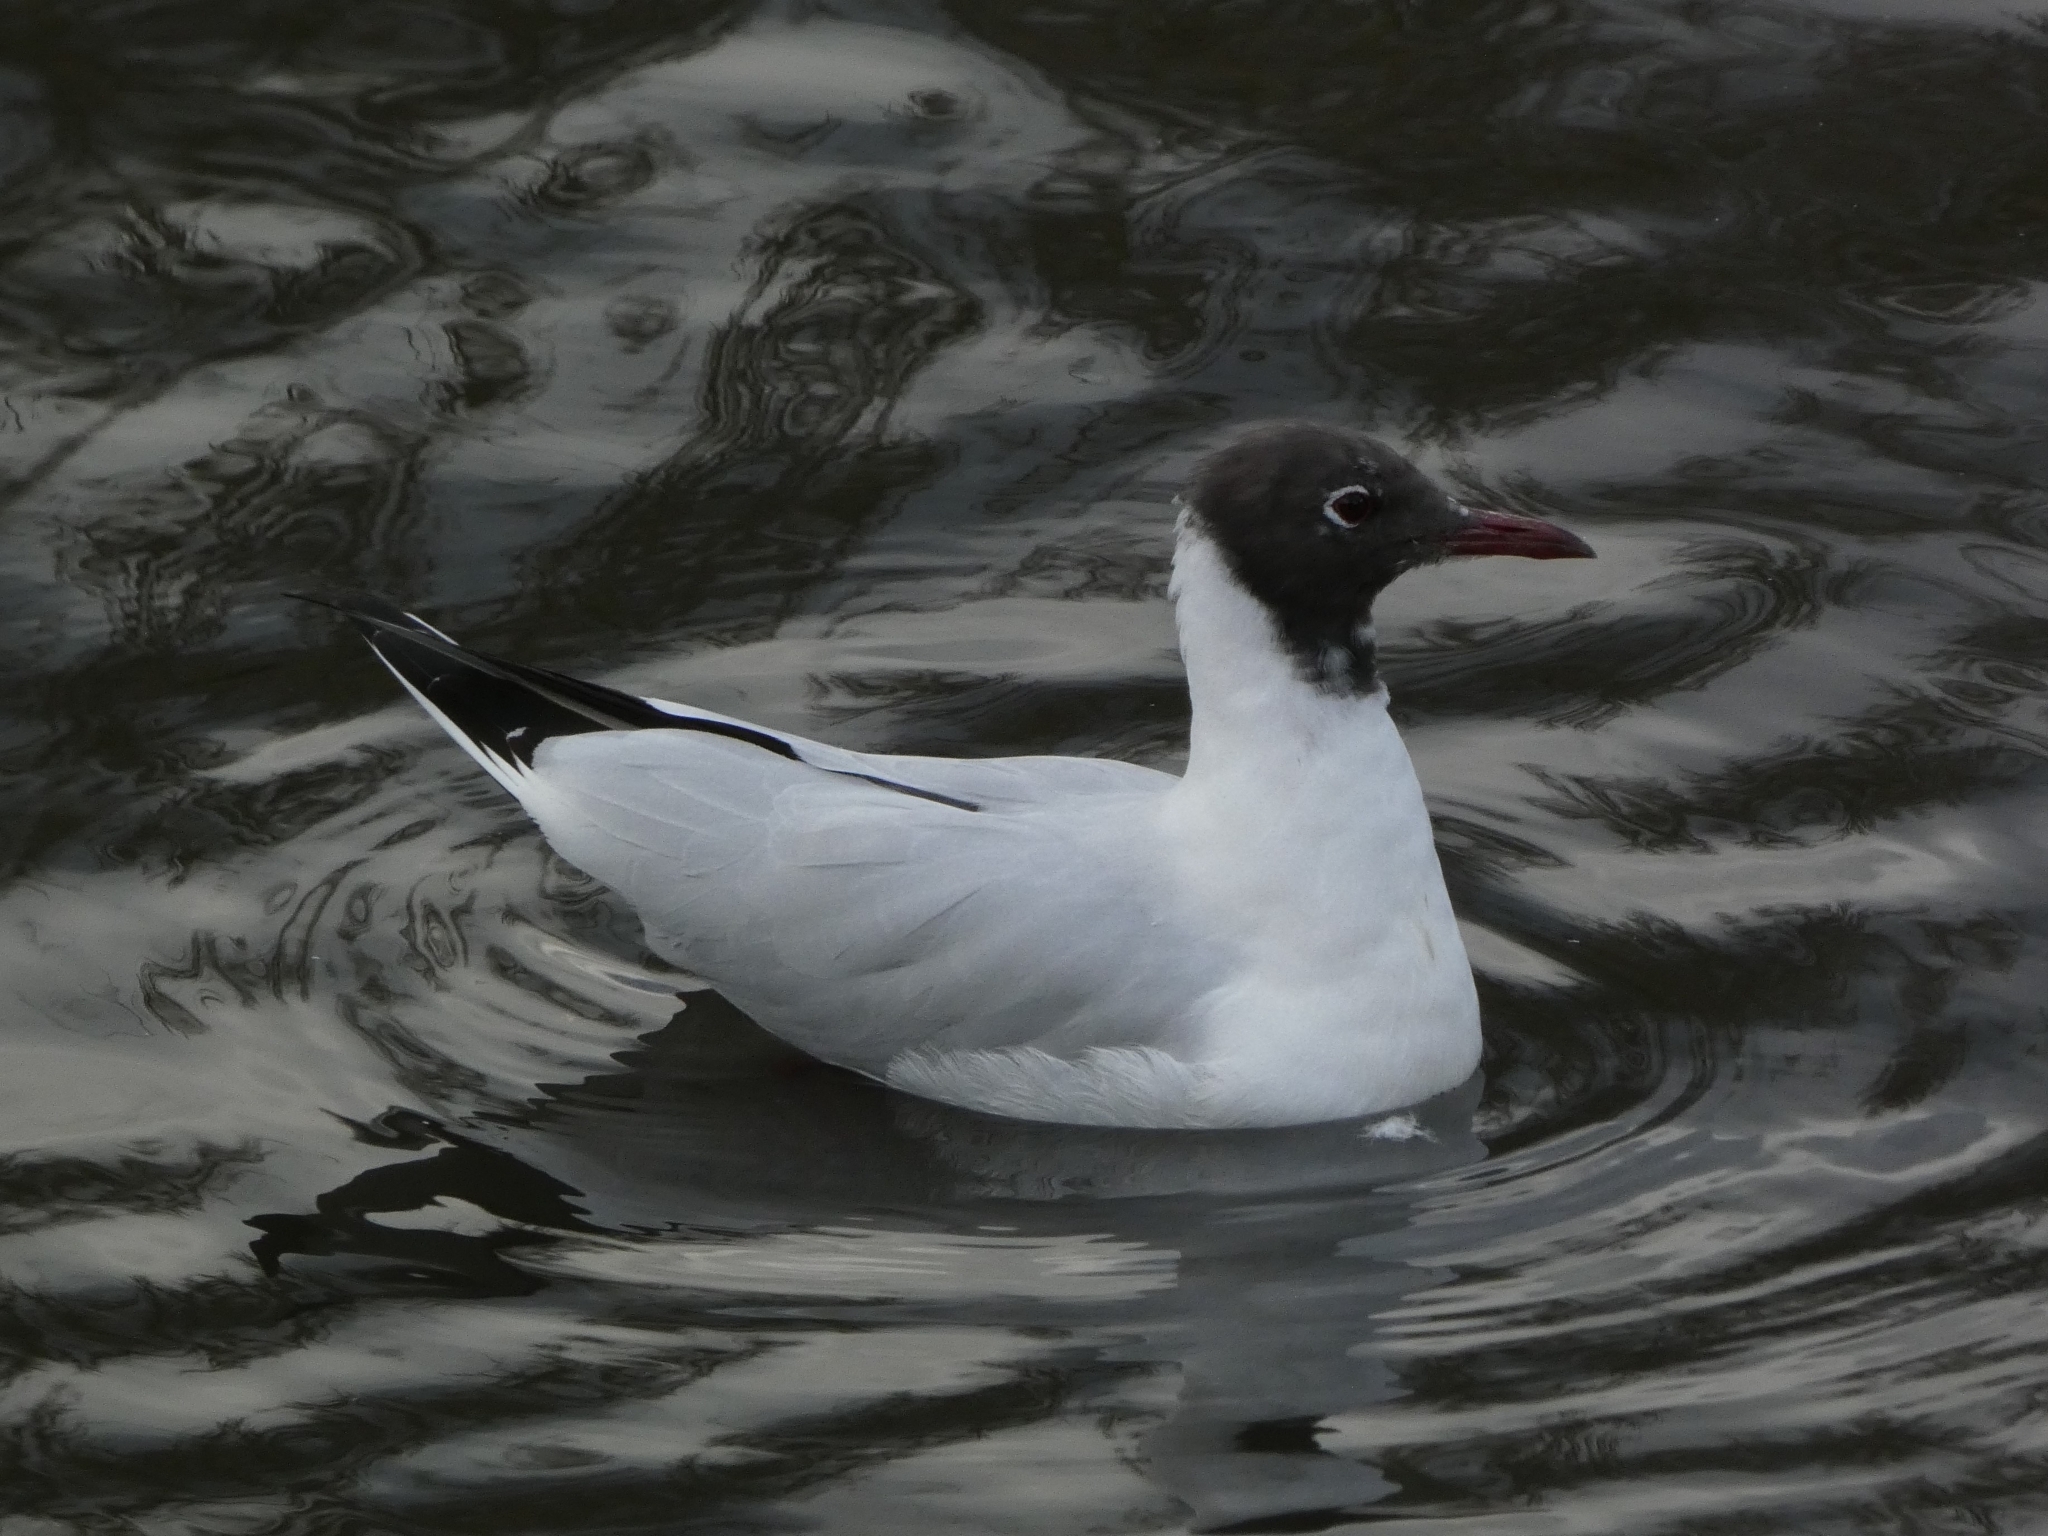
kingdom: Animalia
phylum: Chordata
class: Aves
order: Charadriiformes
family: Laridae
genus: Chroicocephalus
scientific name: Chroicocephalus ridibundus
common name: Black-headed gull
